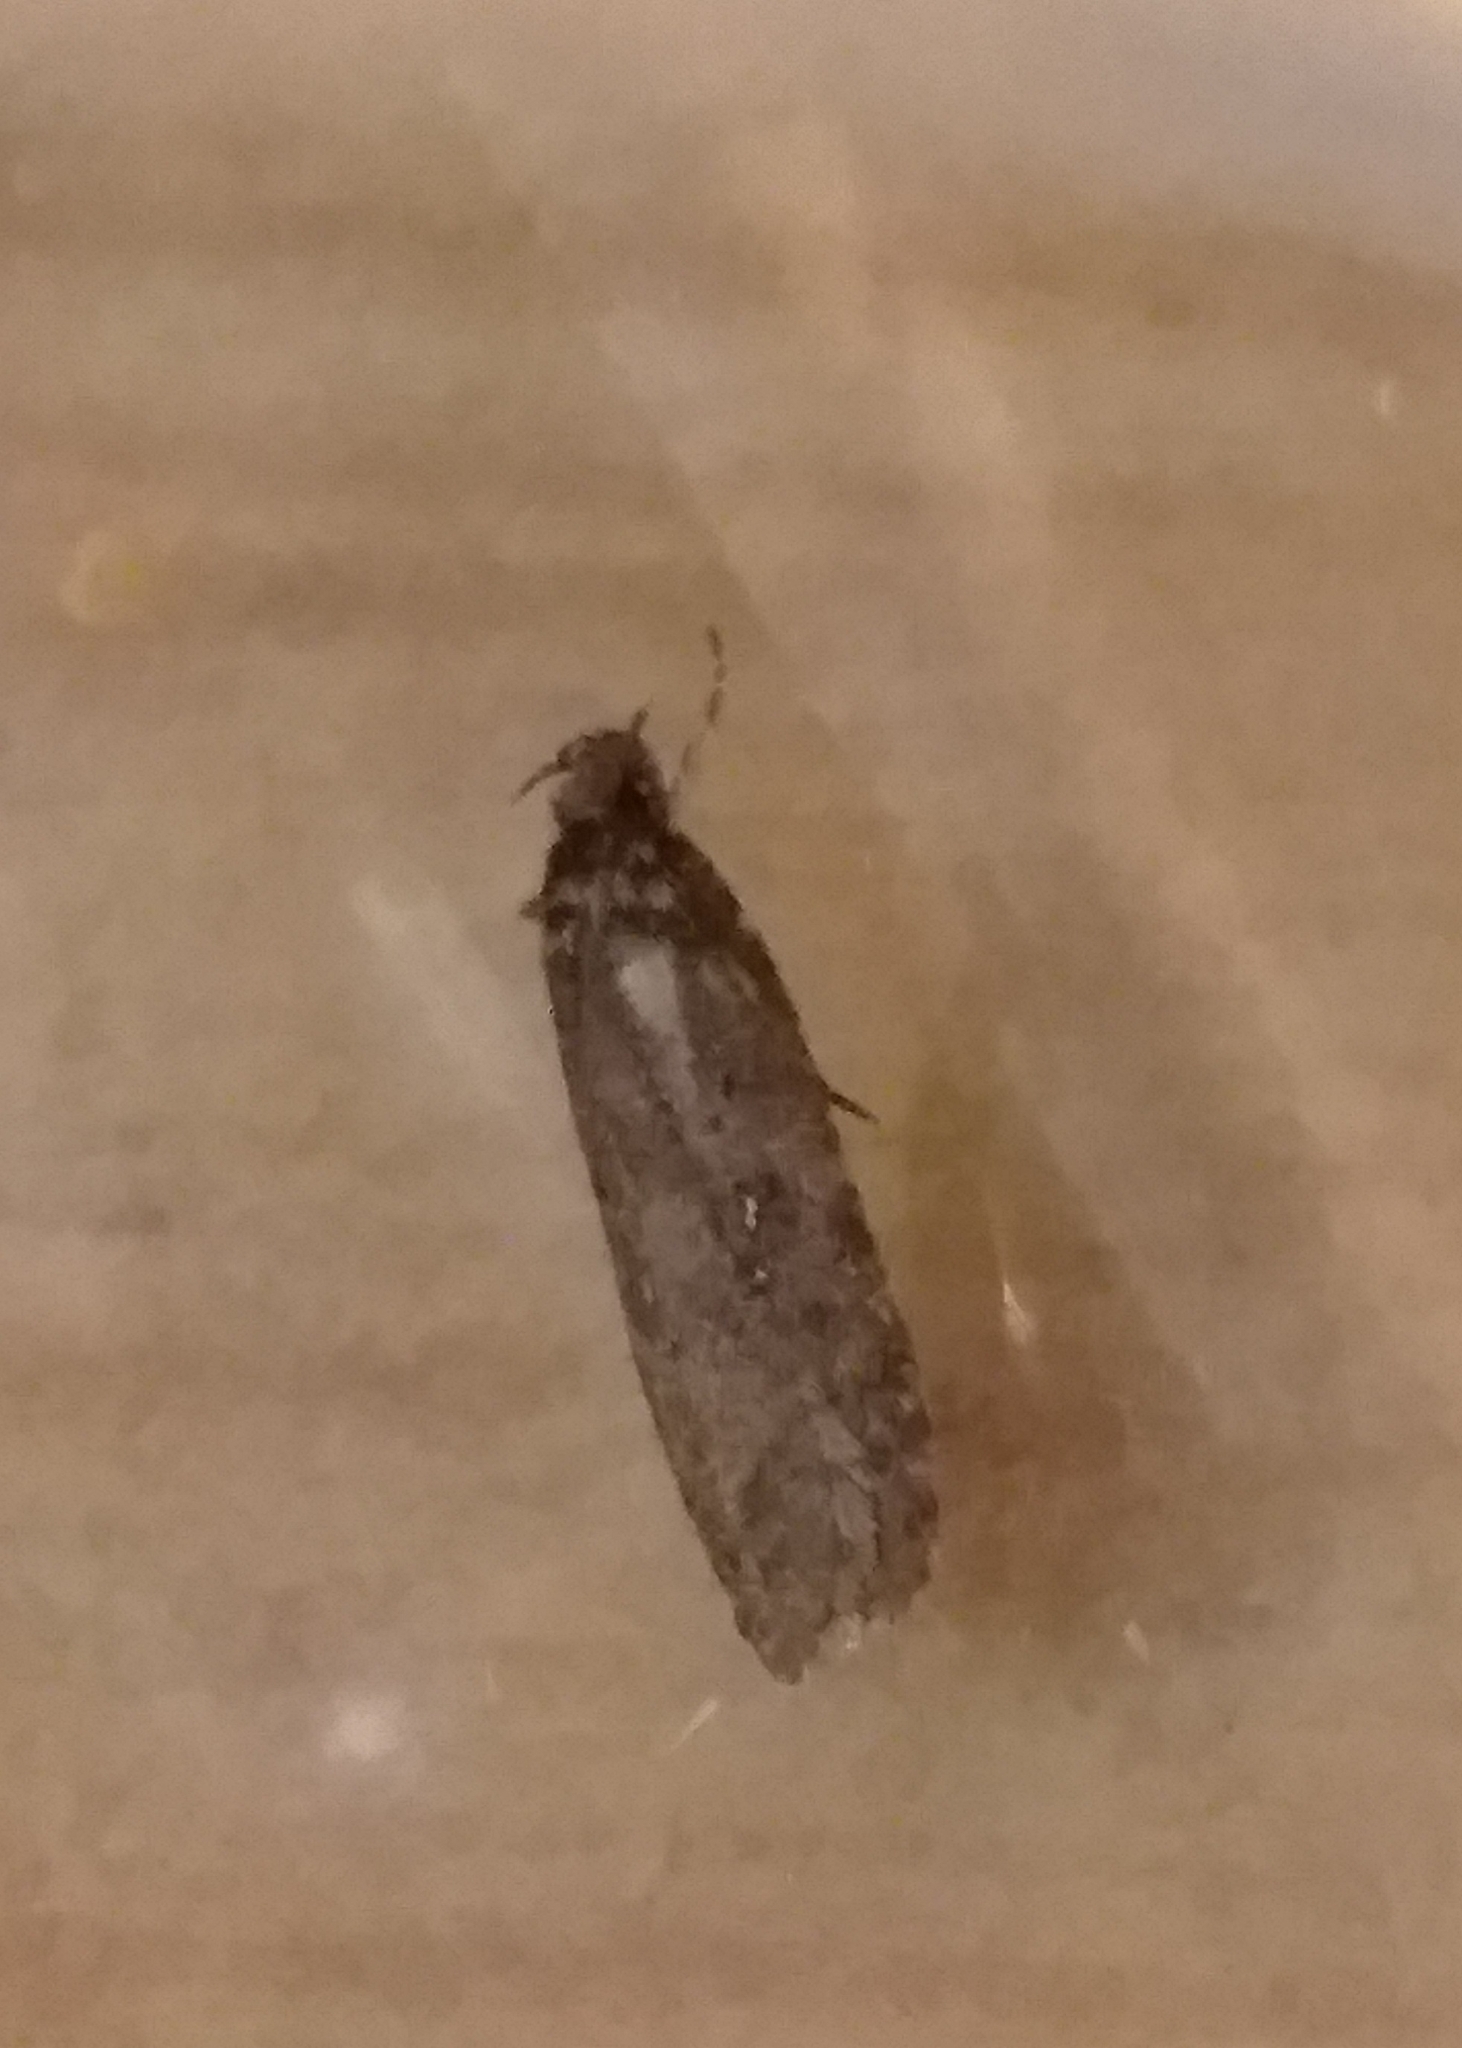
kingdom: Animalia
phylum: Arthropoda
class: Insecta
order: Lepidoptera
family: Depressariidae
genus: Agonopterix
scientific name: Agonopterix
